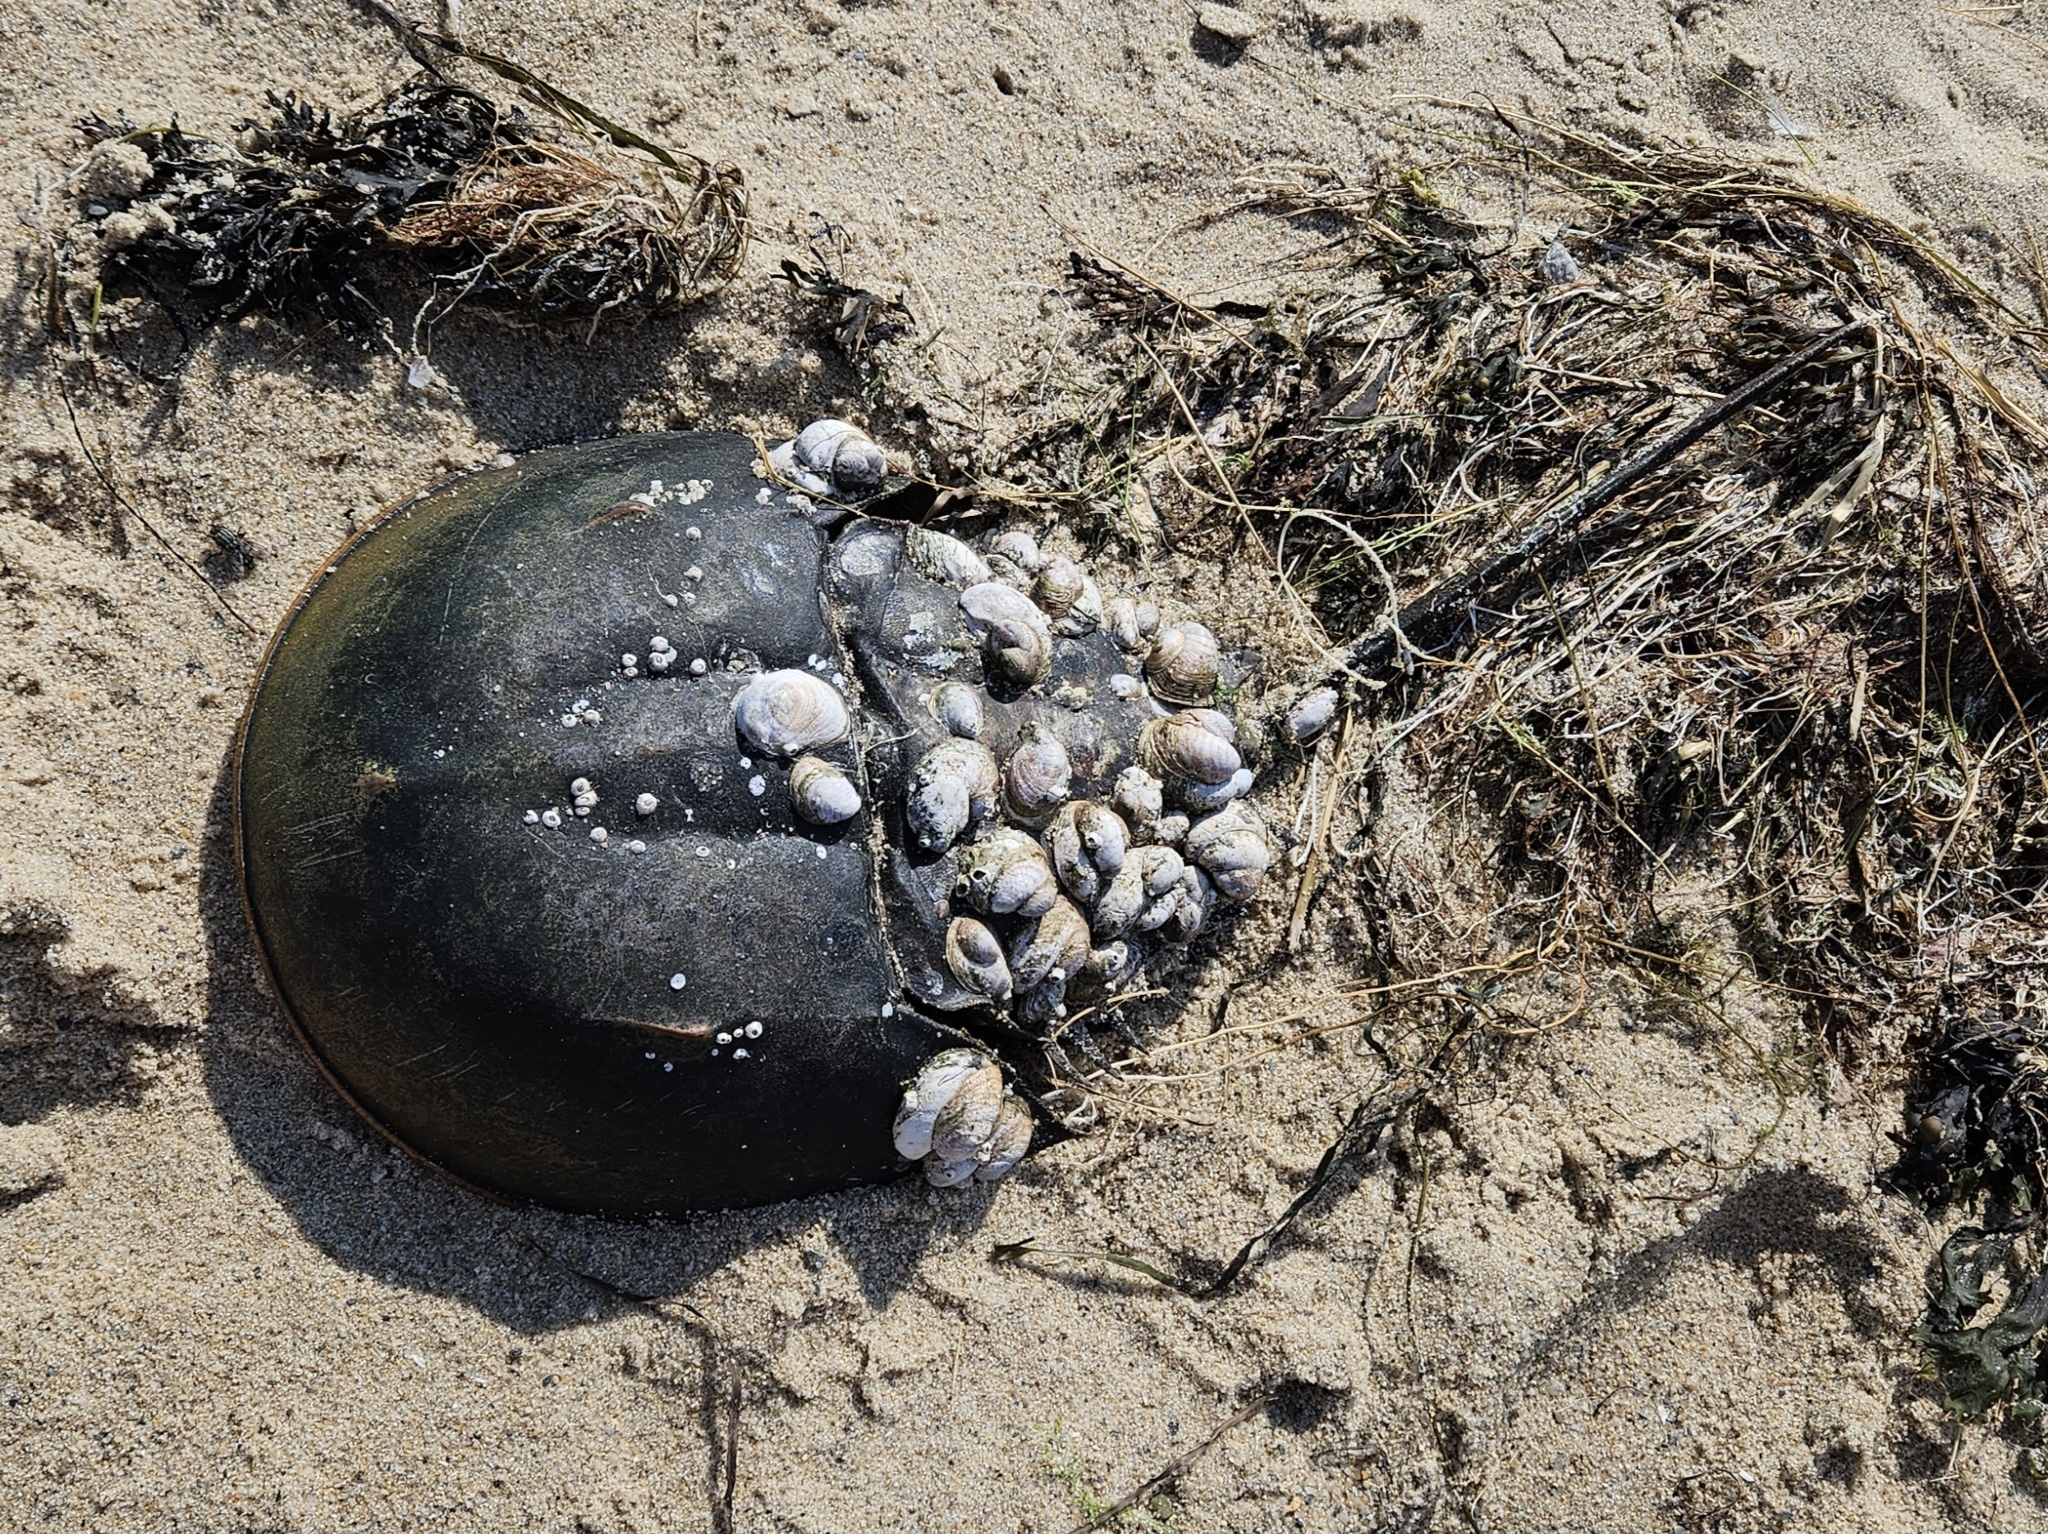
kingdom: Animalia
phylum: Arthropoda
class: Merostomata
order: Xiphosurida
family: Limulidae
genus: Limulus
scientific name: Limulus polyphemus
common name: Horseshoe crab
